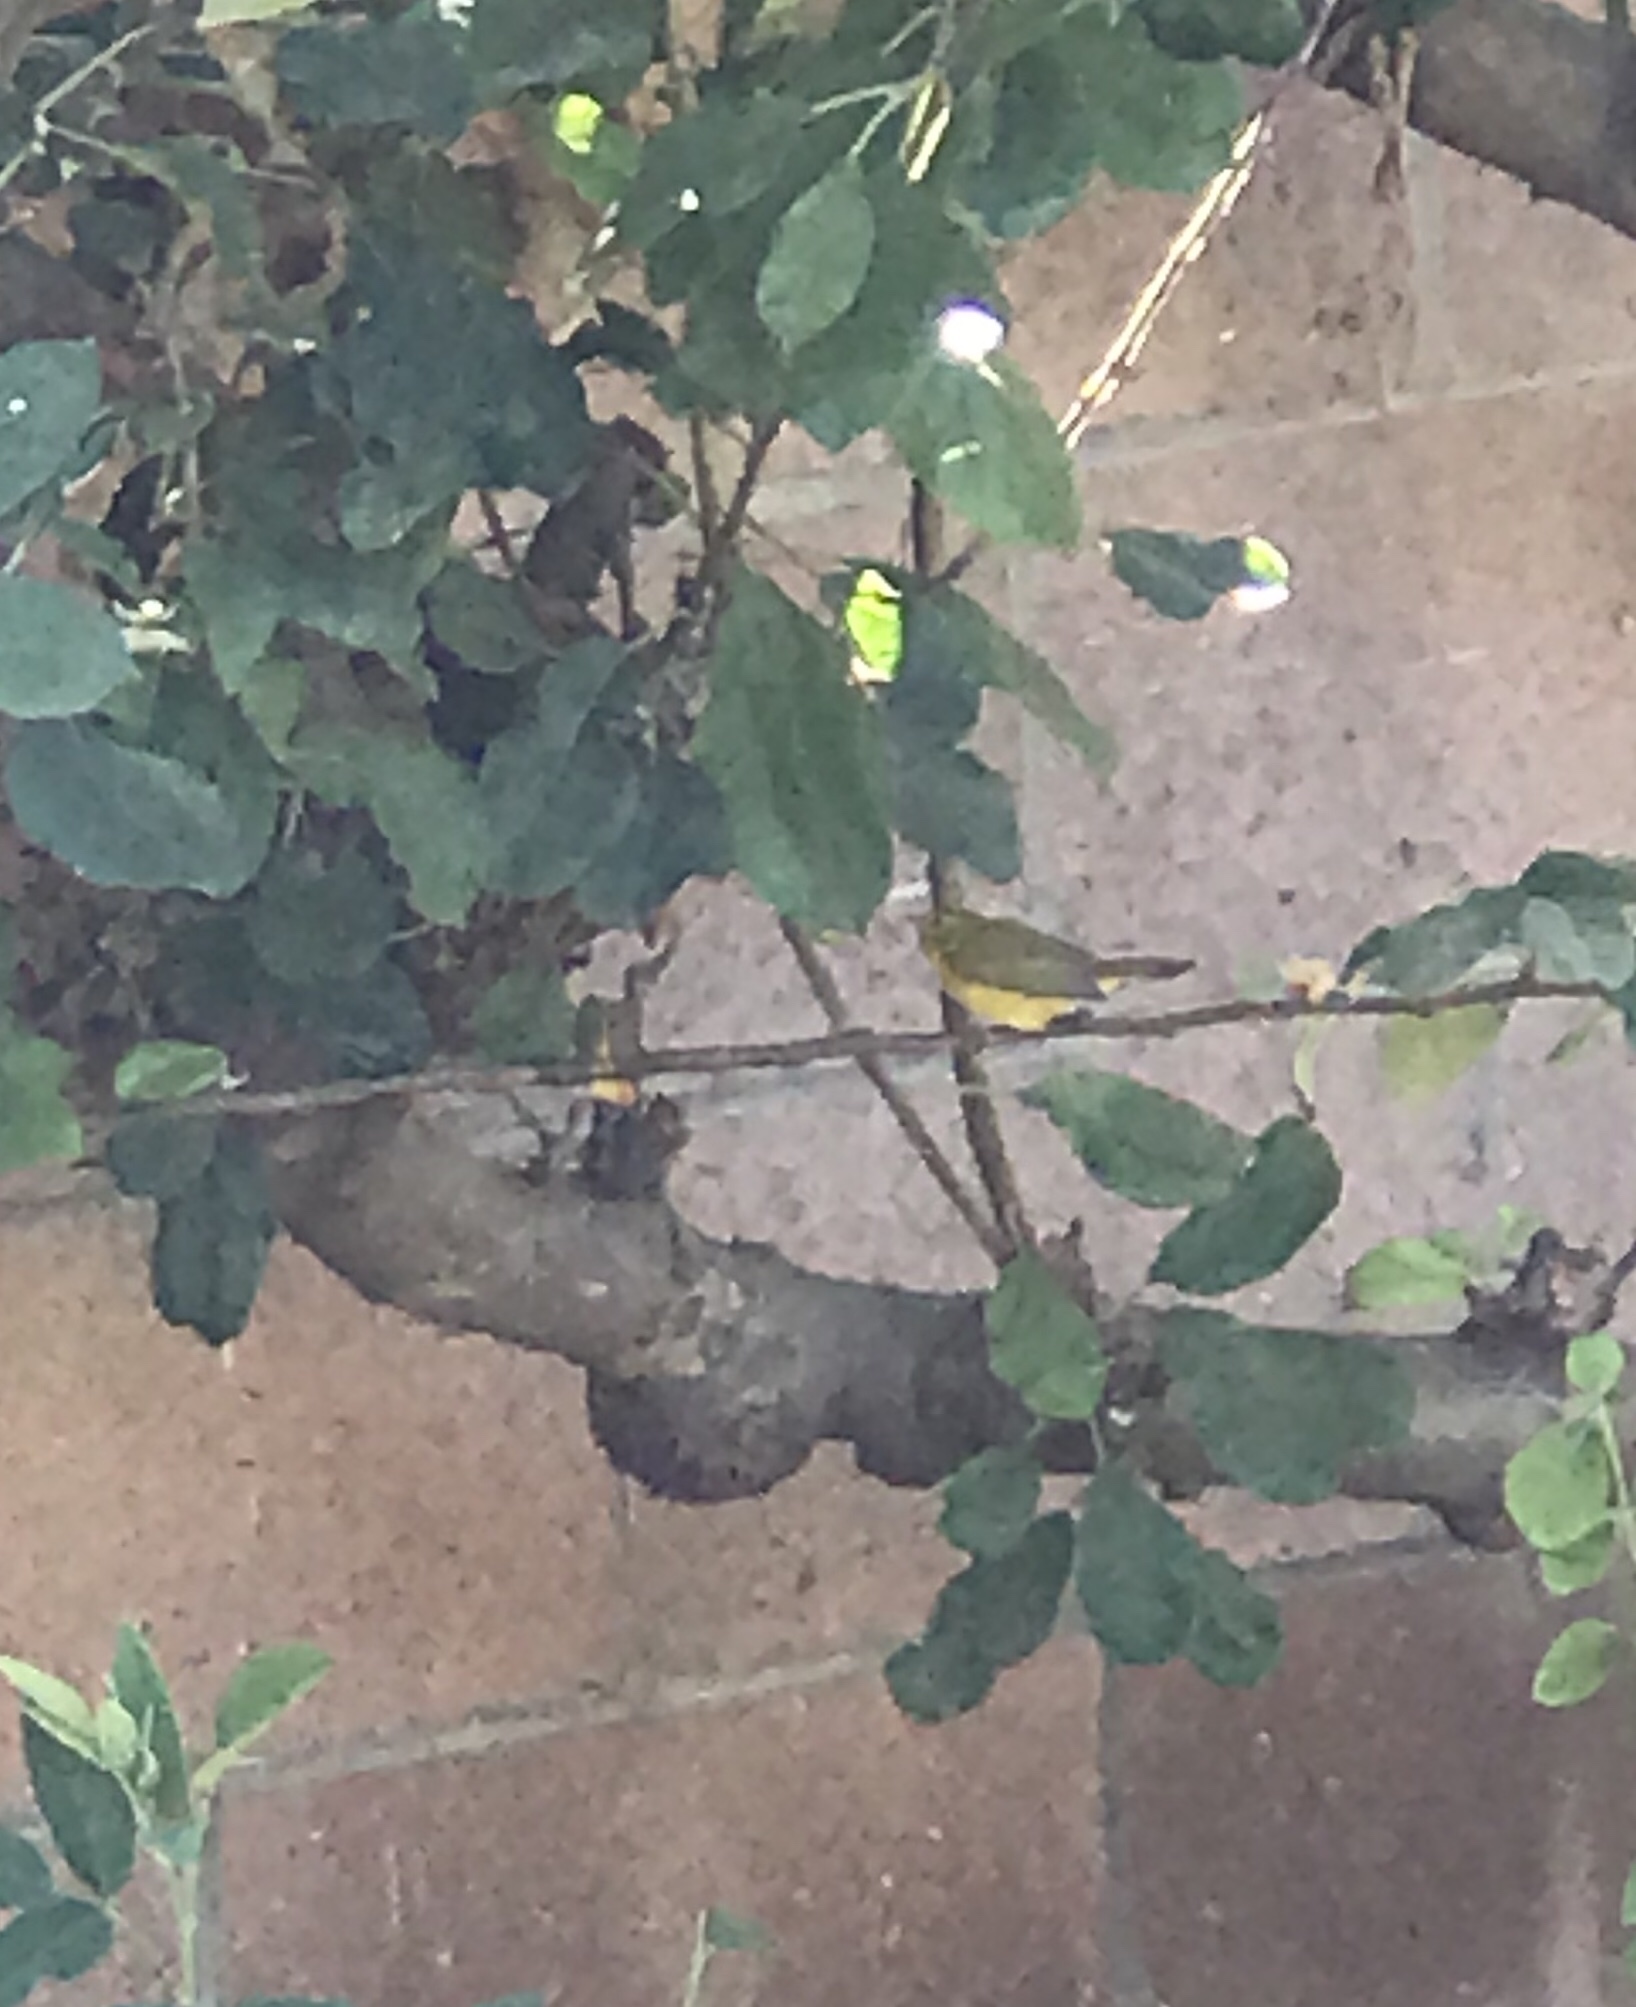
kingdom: Animalia
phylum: Chordata
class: Aves
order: Passeriformes
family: Parulidae
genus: Cardellina
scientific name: Cardellina pusilla
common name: Wilson's warbler
